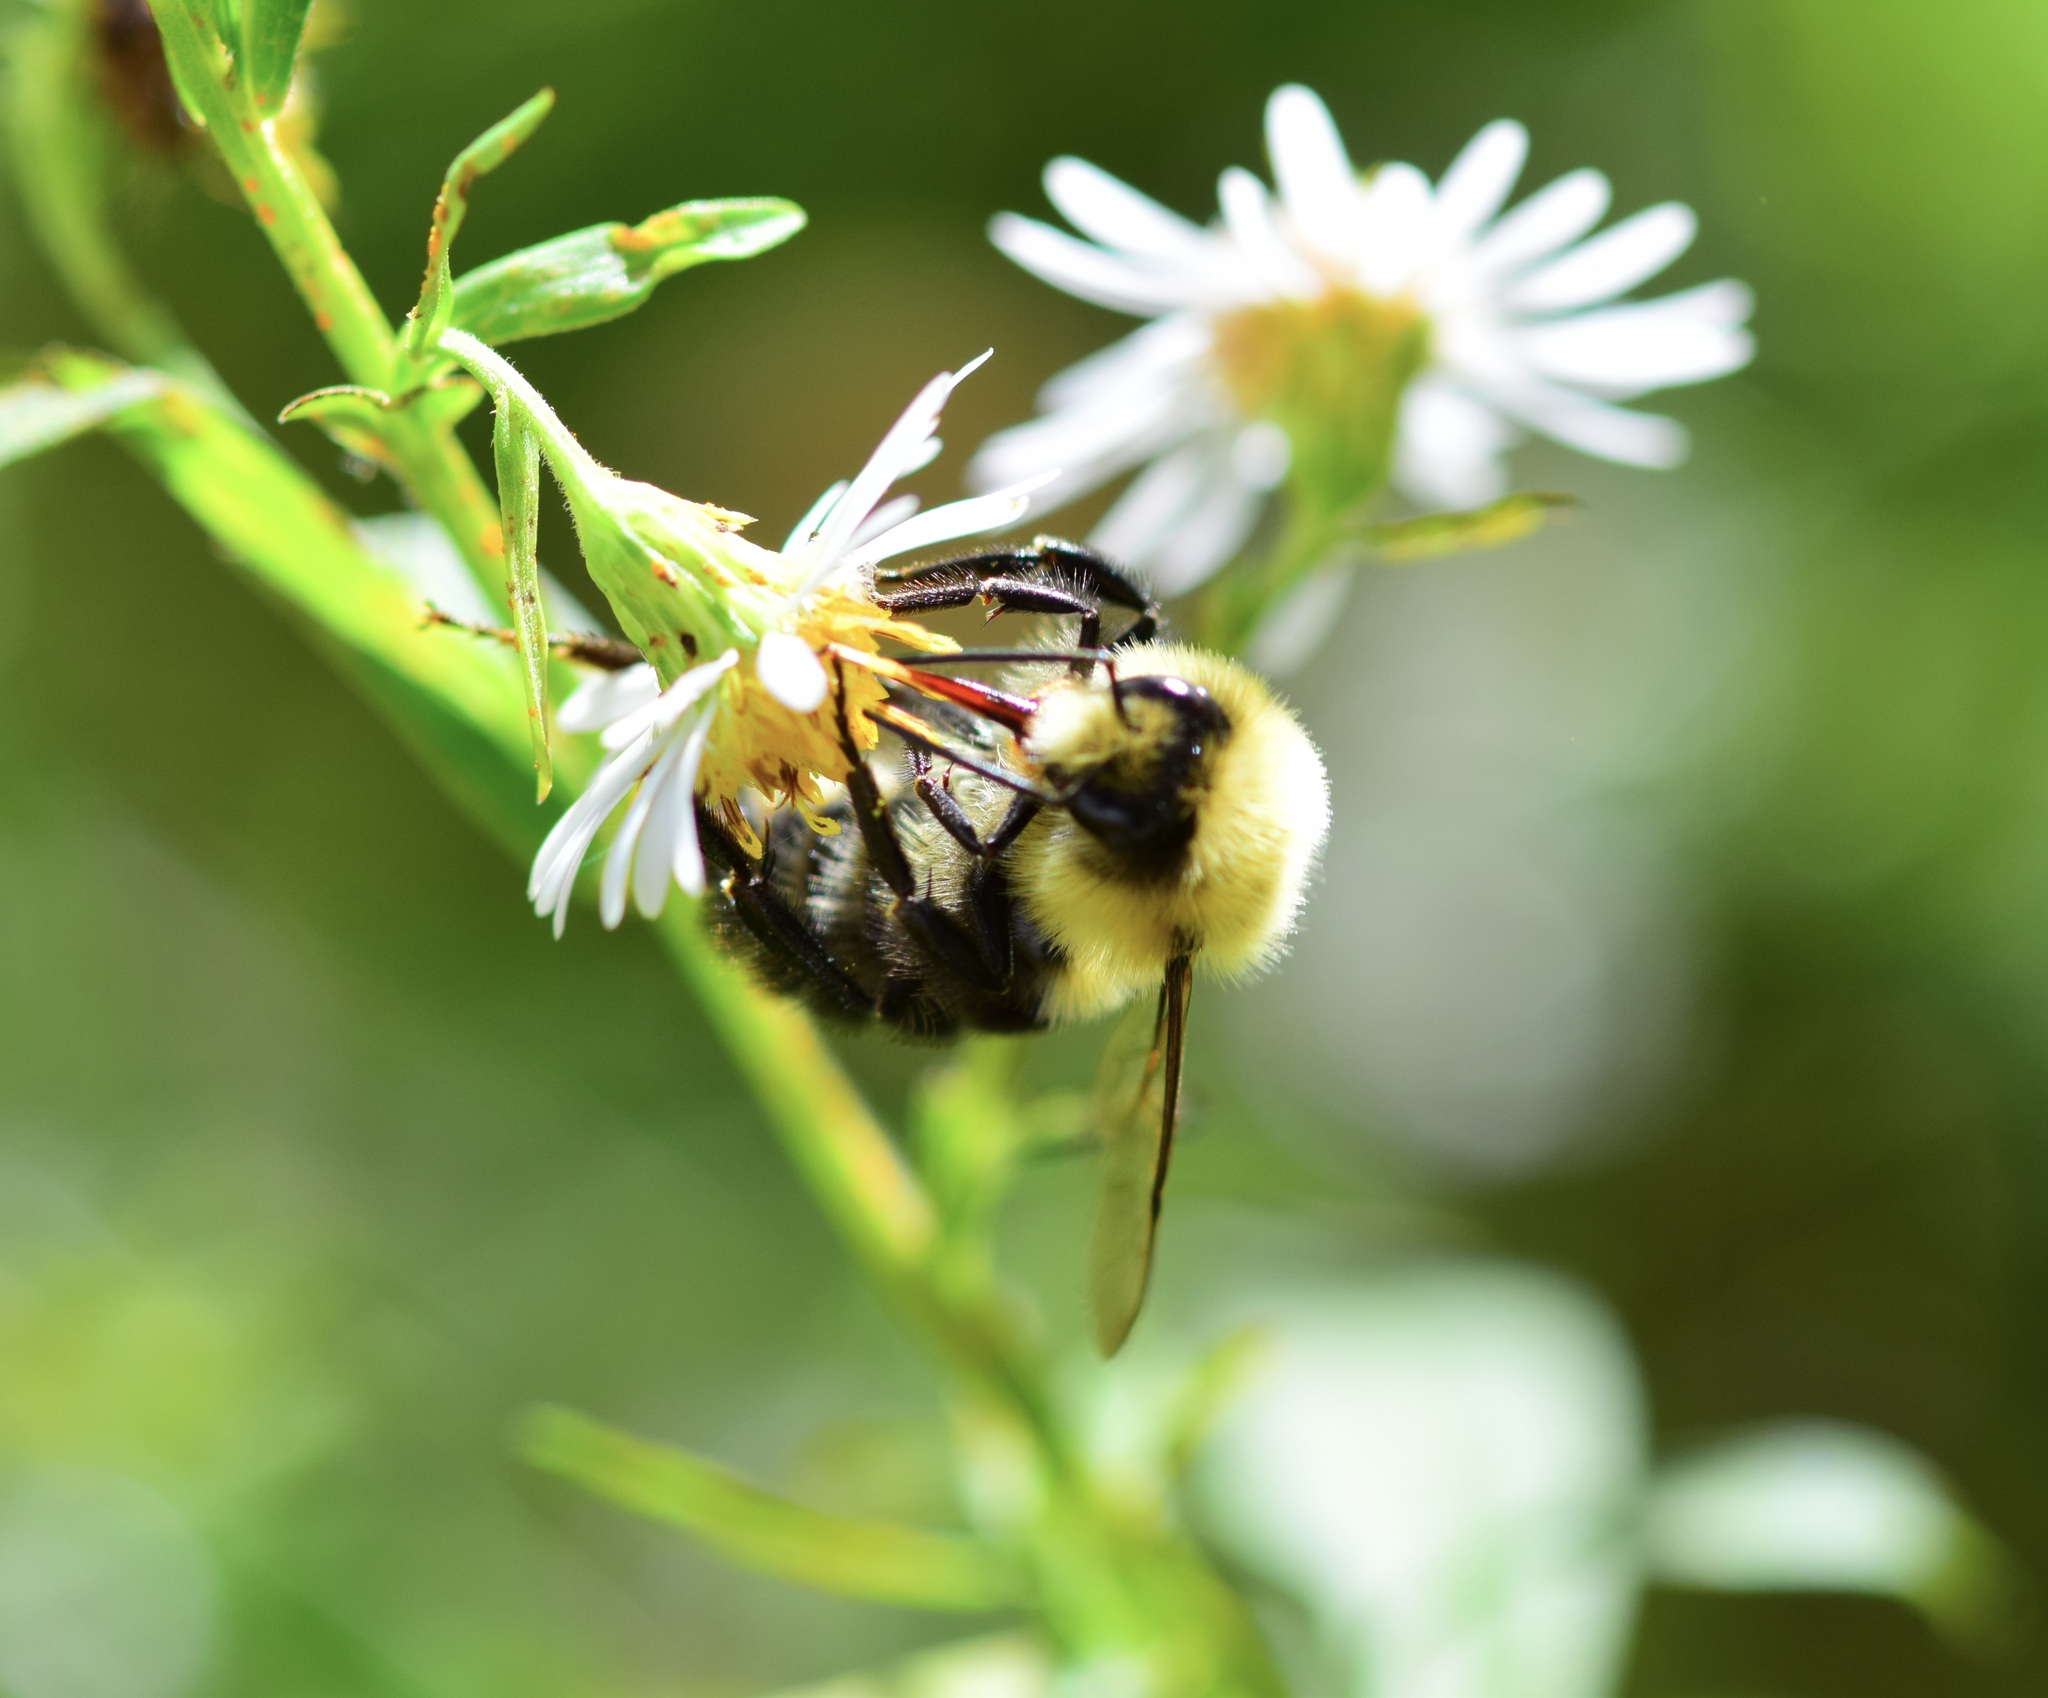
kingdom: Animalia
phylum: Arthropoda
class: Insecta
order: Hymenoptera
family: Apidae
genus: Bombus
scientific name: Bombus impatiens
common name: Common eastern bumble bee
